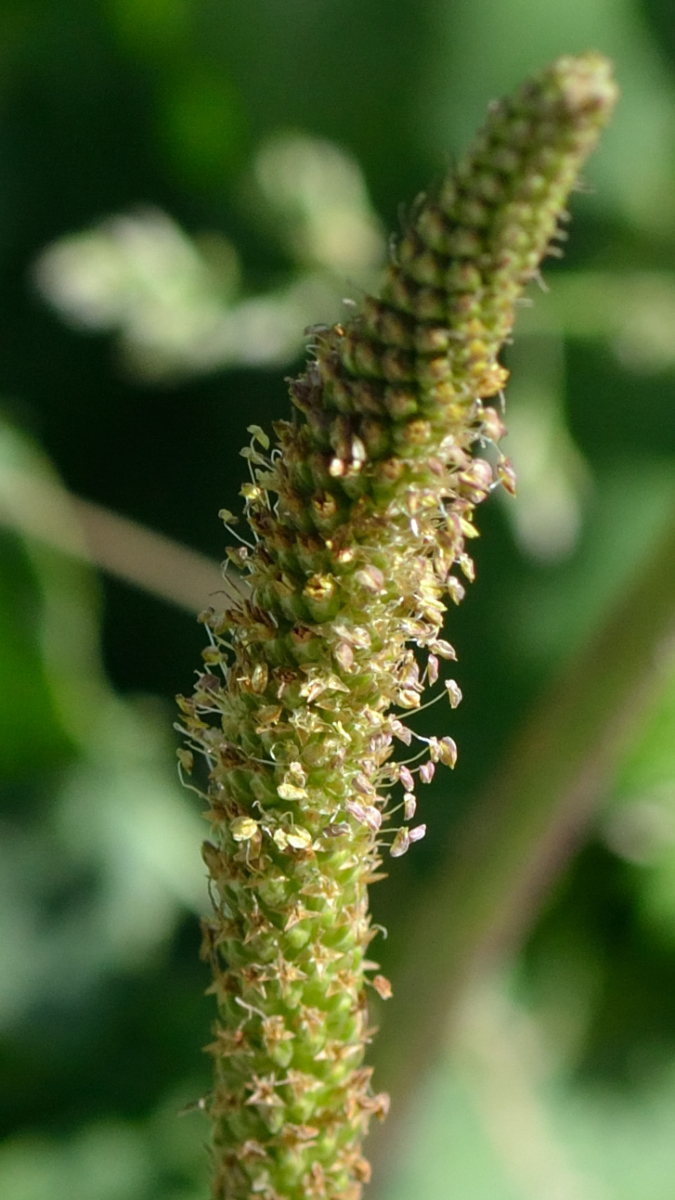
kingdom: Plantae
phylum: Tracheophyta
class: Magnoliopsida
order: Lamiales
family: Plantaginaceae
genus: Plantago
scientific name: Plantago major
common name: Common plantain
